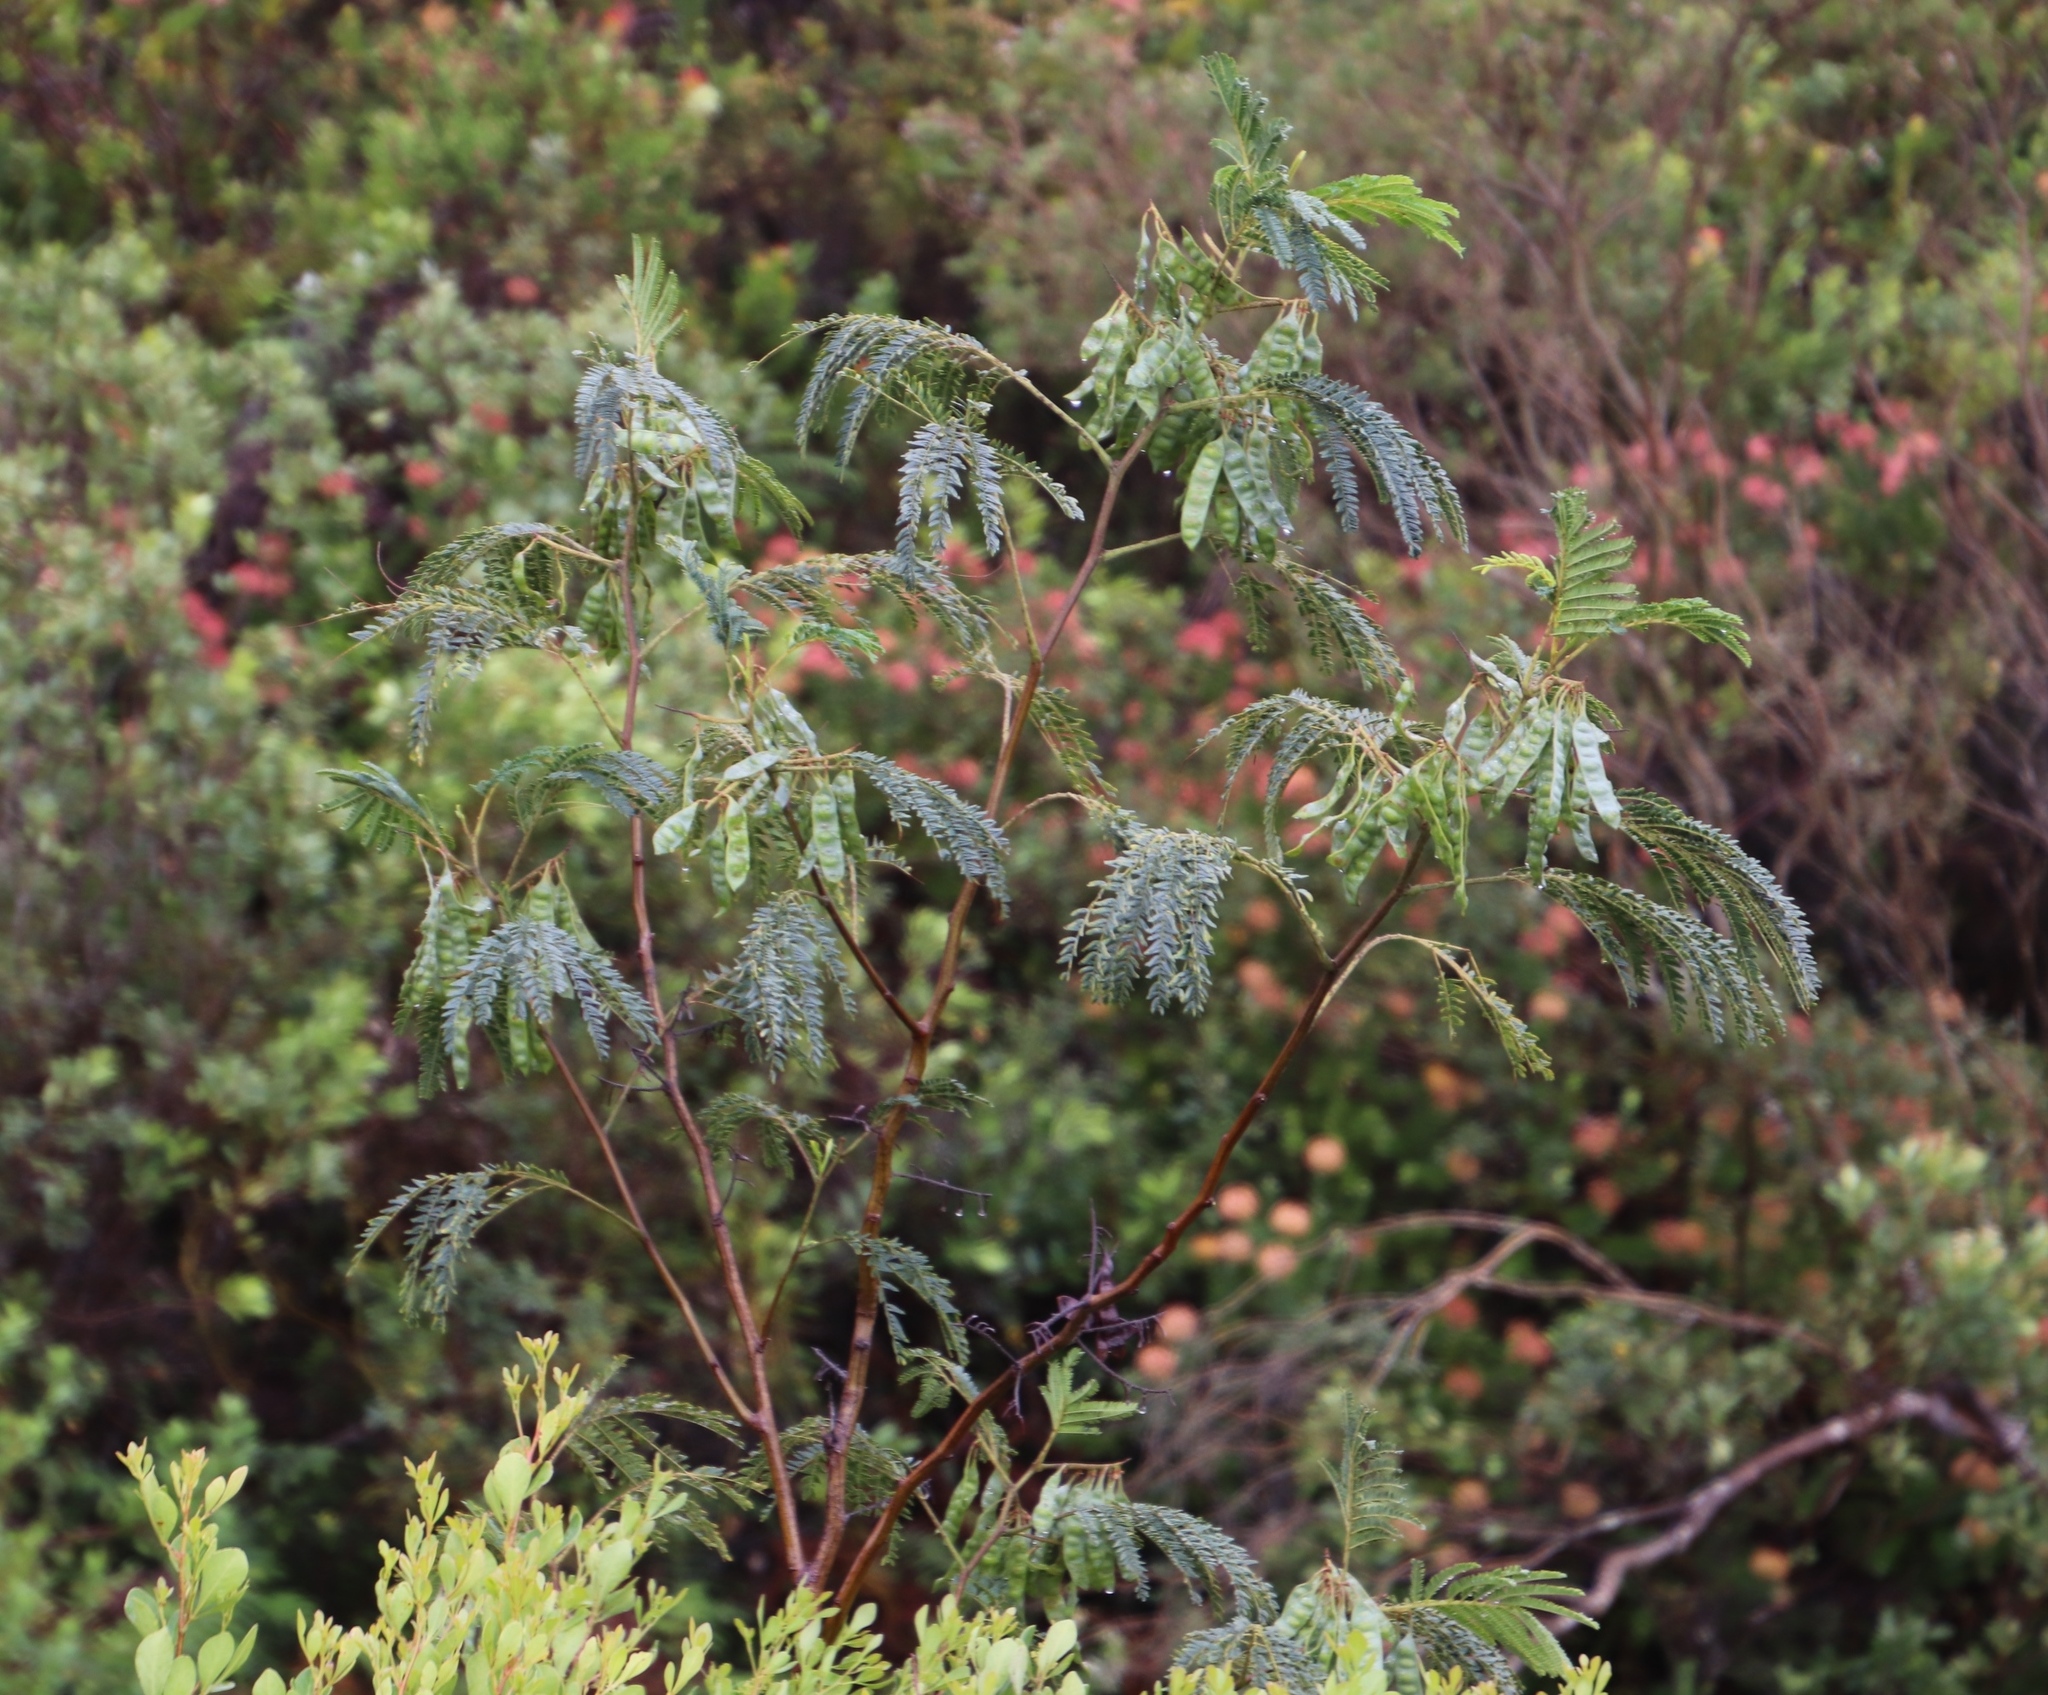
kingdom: Plantae
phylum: Tracheophyta
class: Magnoliopsida
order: Fabales
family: Fabaceae
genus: Paraserianthes
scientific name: Paraserianthes lophantha
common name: Plume albizia
